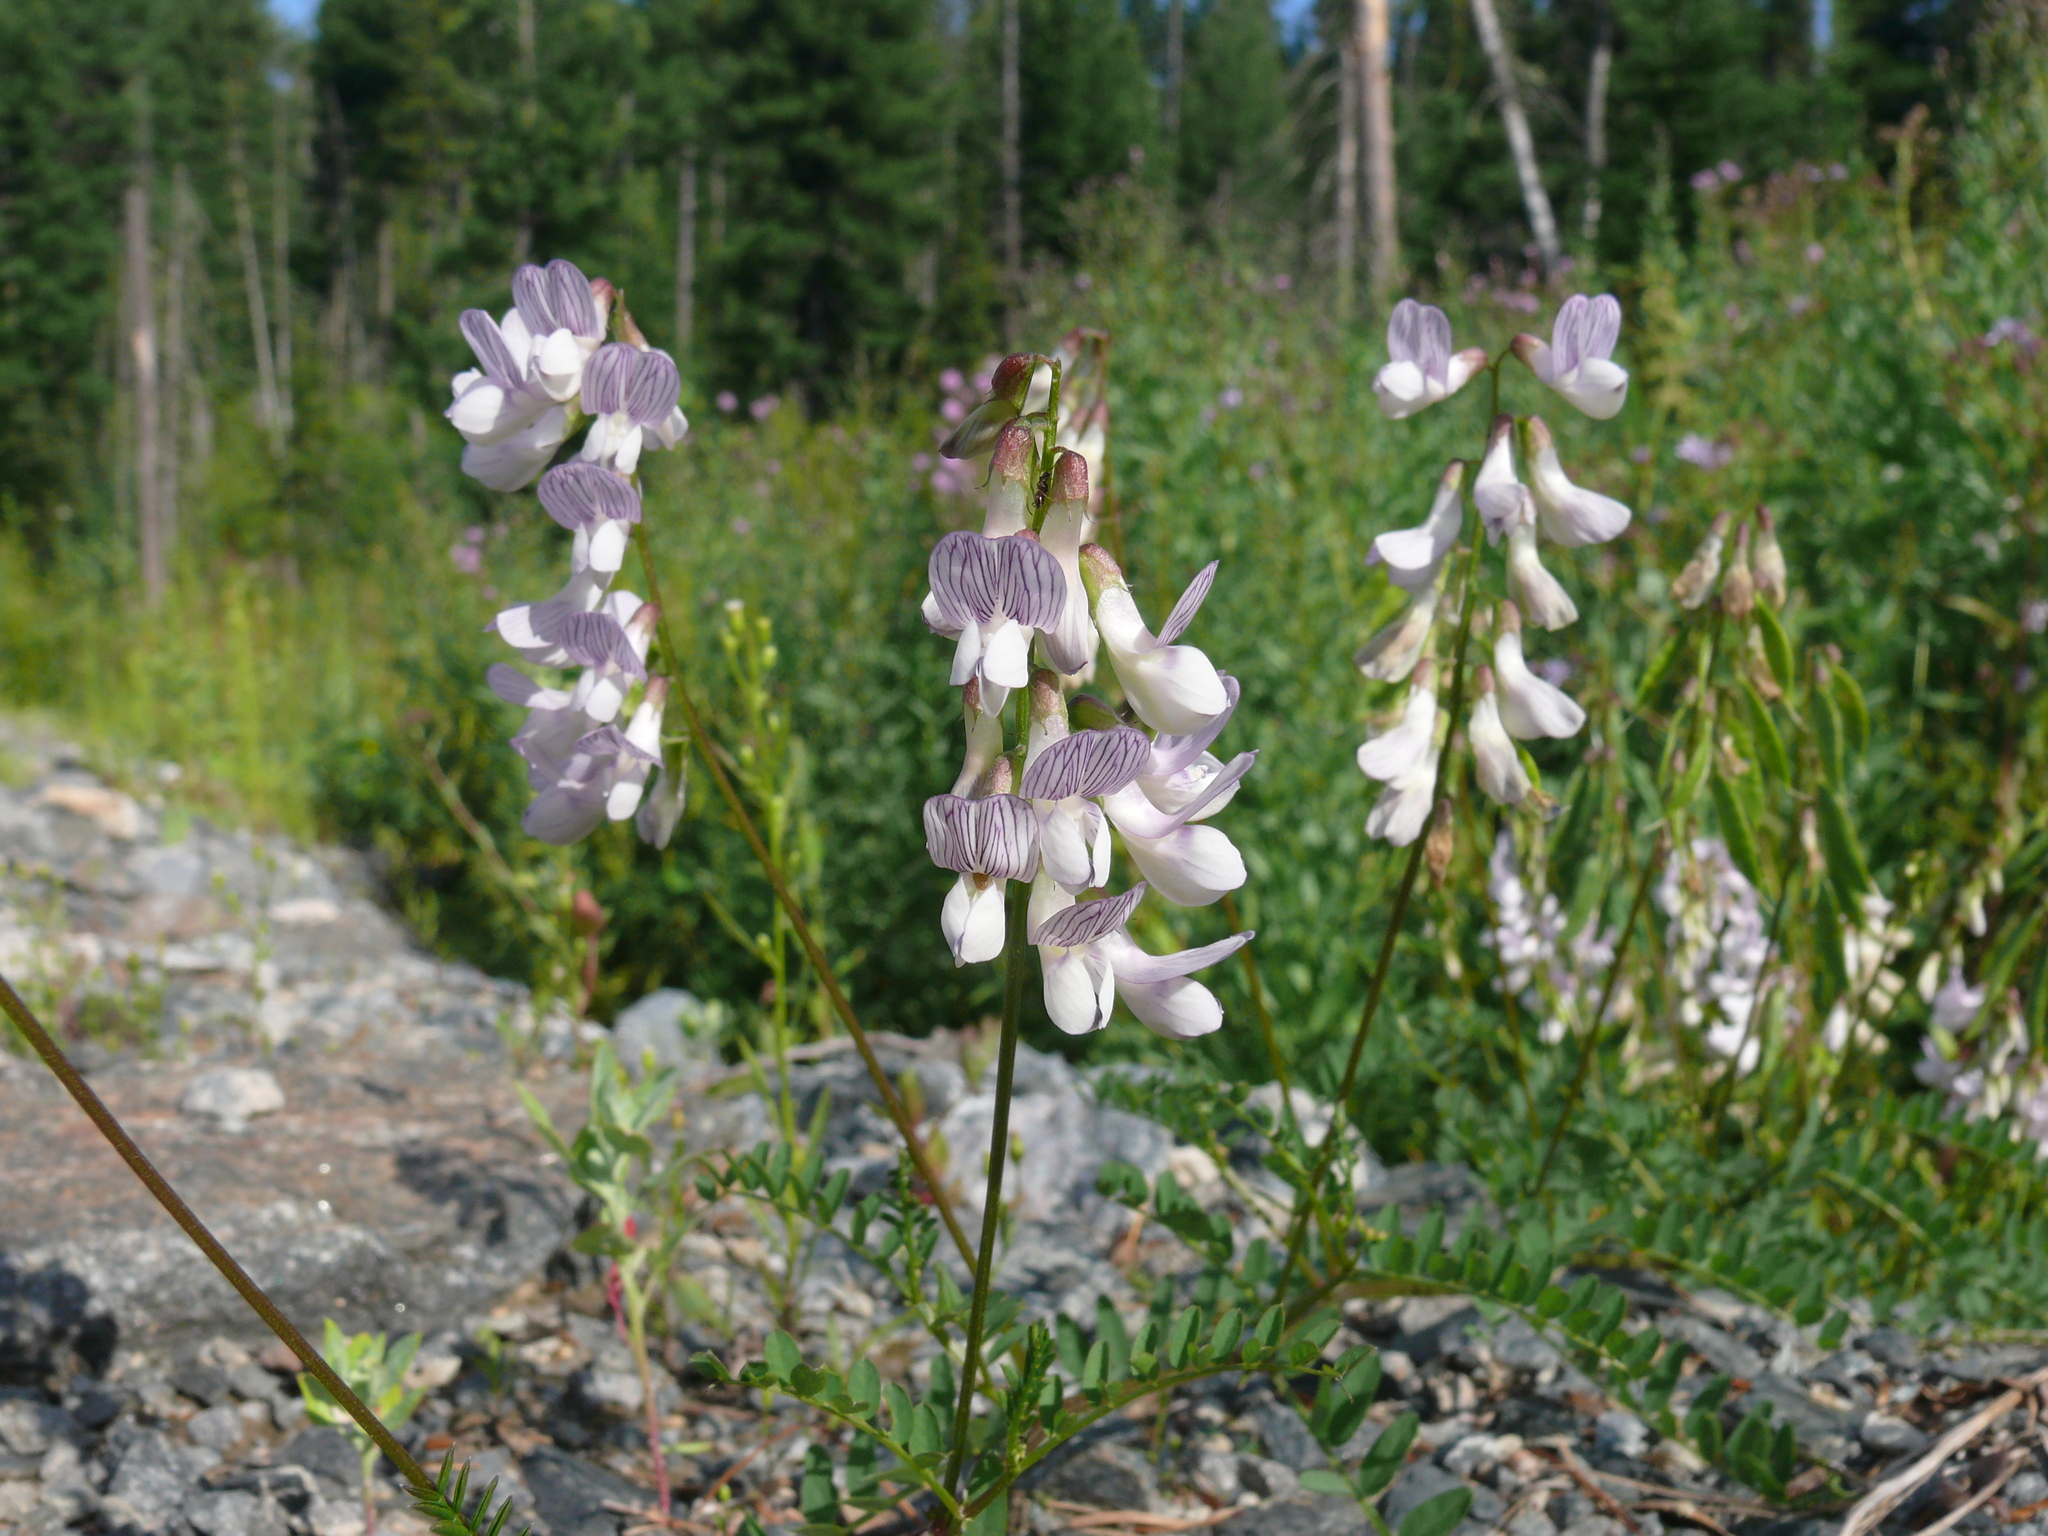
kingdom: Plantae
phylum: Tracheophyta
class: Magnoliopsida
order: Fabales
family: Fabaceae
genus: Vicia
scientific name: Vicia sylvatica
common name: Wood vetch
